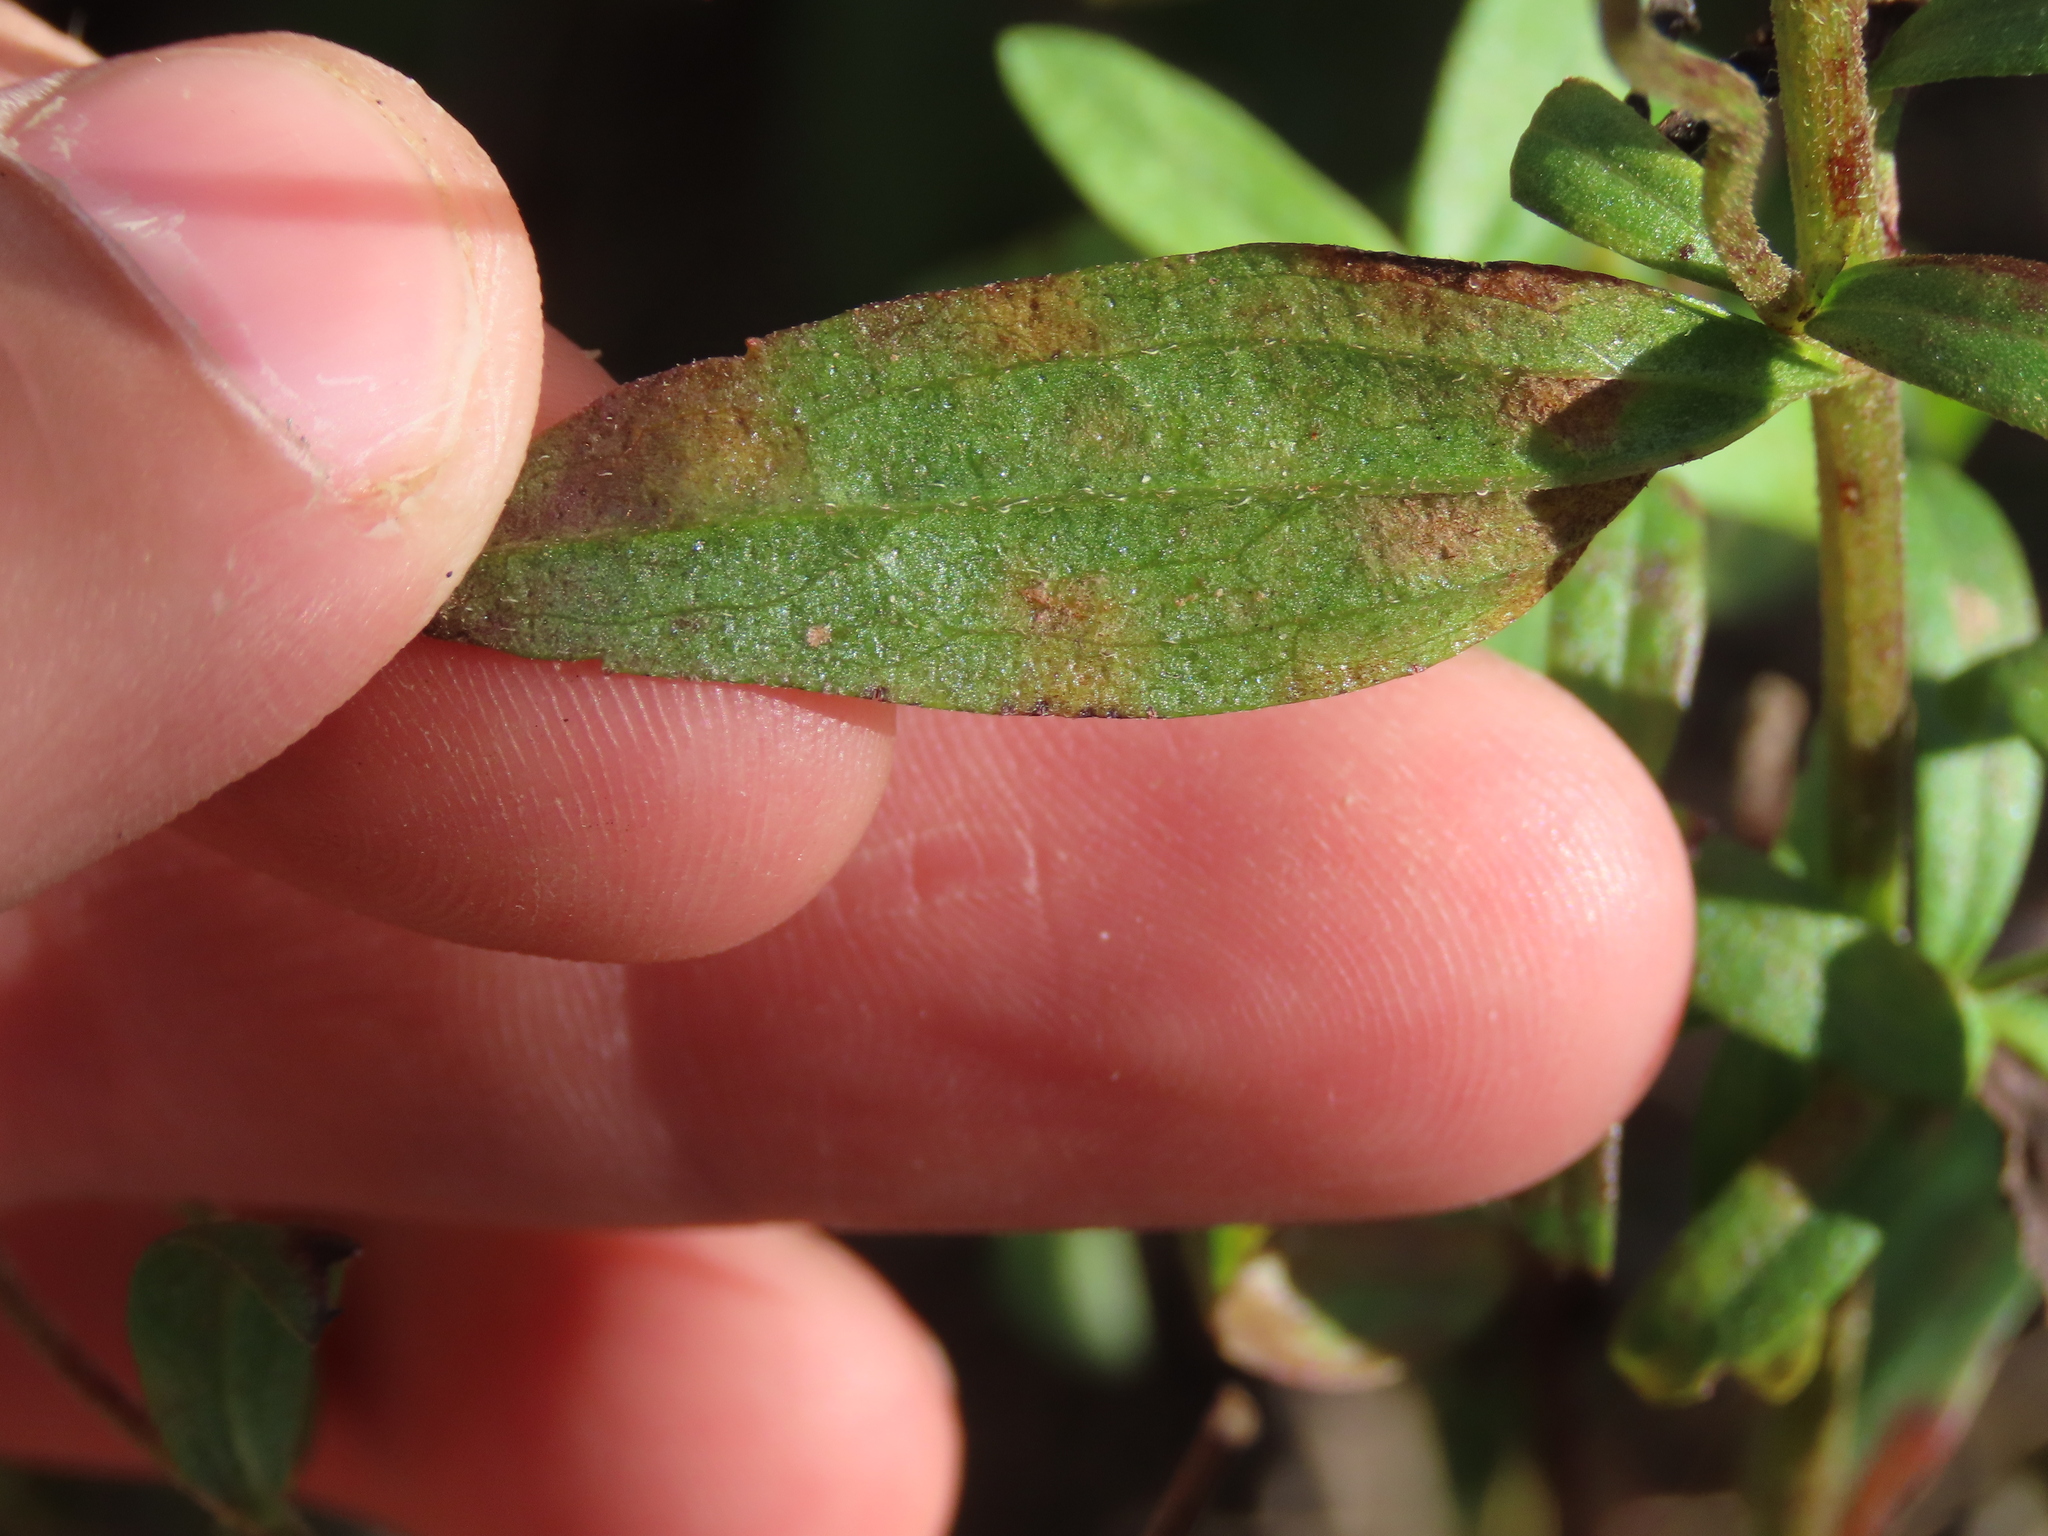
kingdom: Plantae
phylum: Tracheophyta
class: Magnoliopsida
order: Asterales
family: Asteraceae
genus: Eupatorium
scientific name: Eupatorium subvenosum
